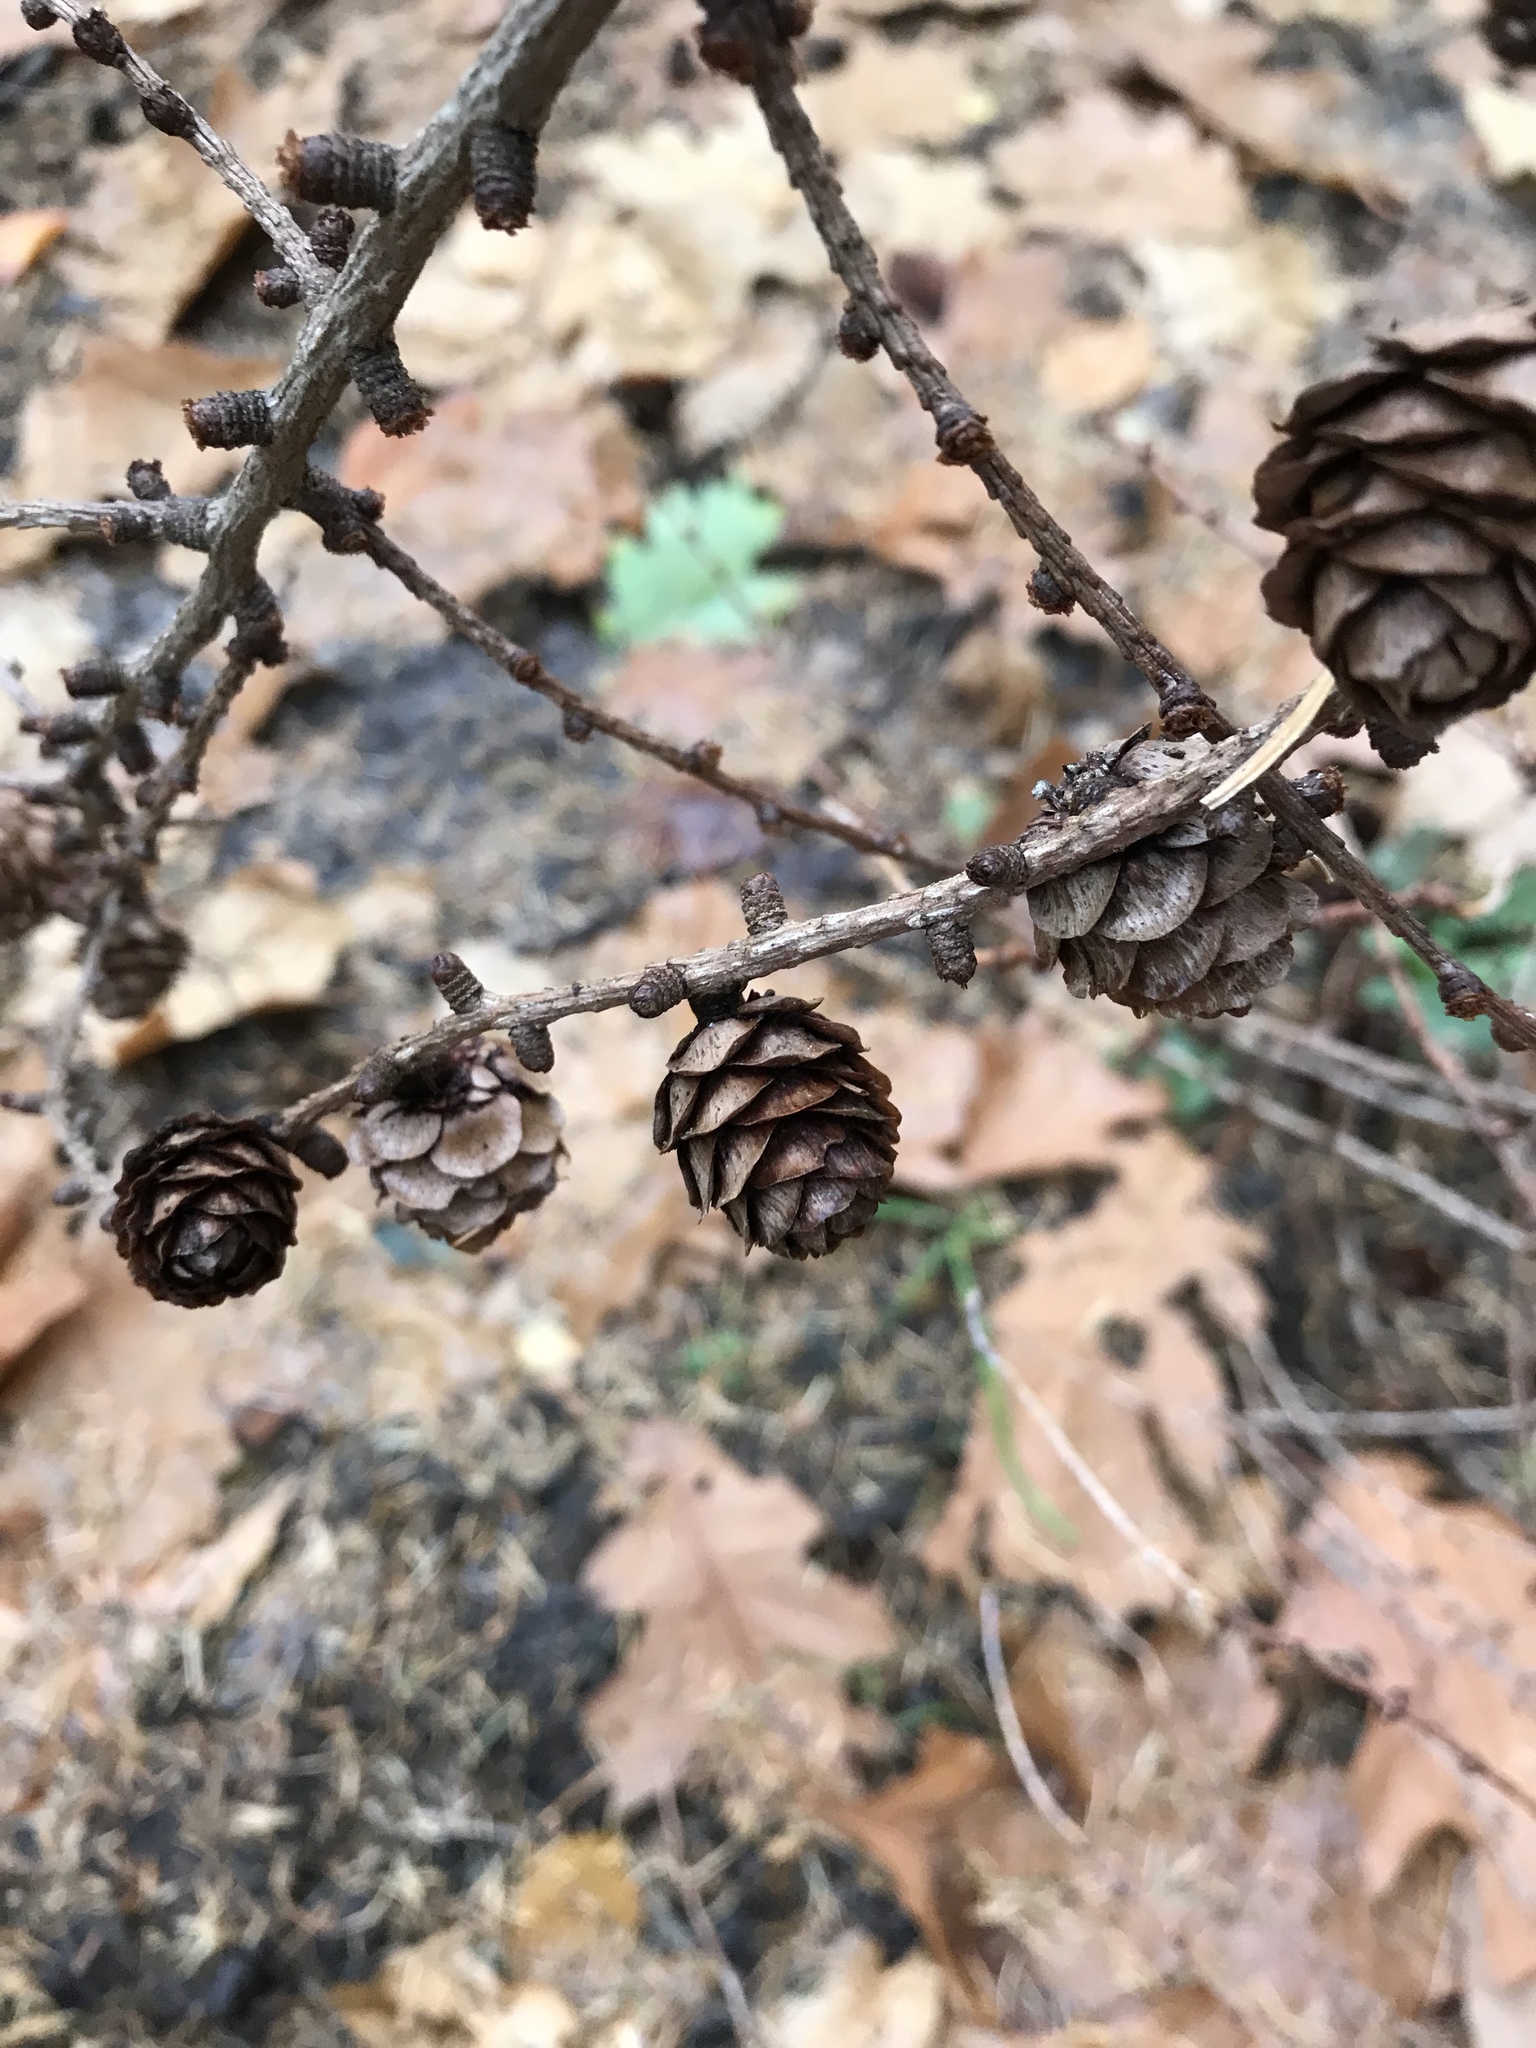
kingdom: Plantae
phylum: Tracheophyta
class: Pinopsida
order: Pinales
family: Pinaceae
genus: Larix
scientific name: Larix decidua
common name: European larch
